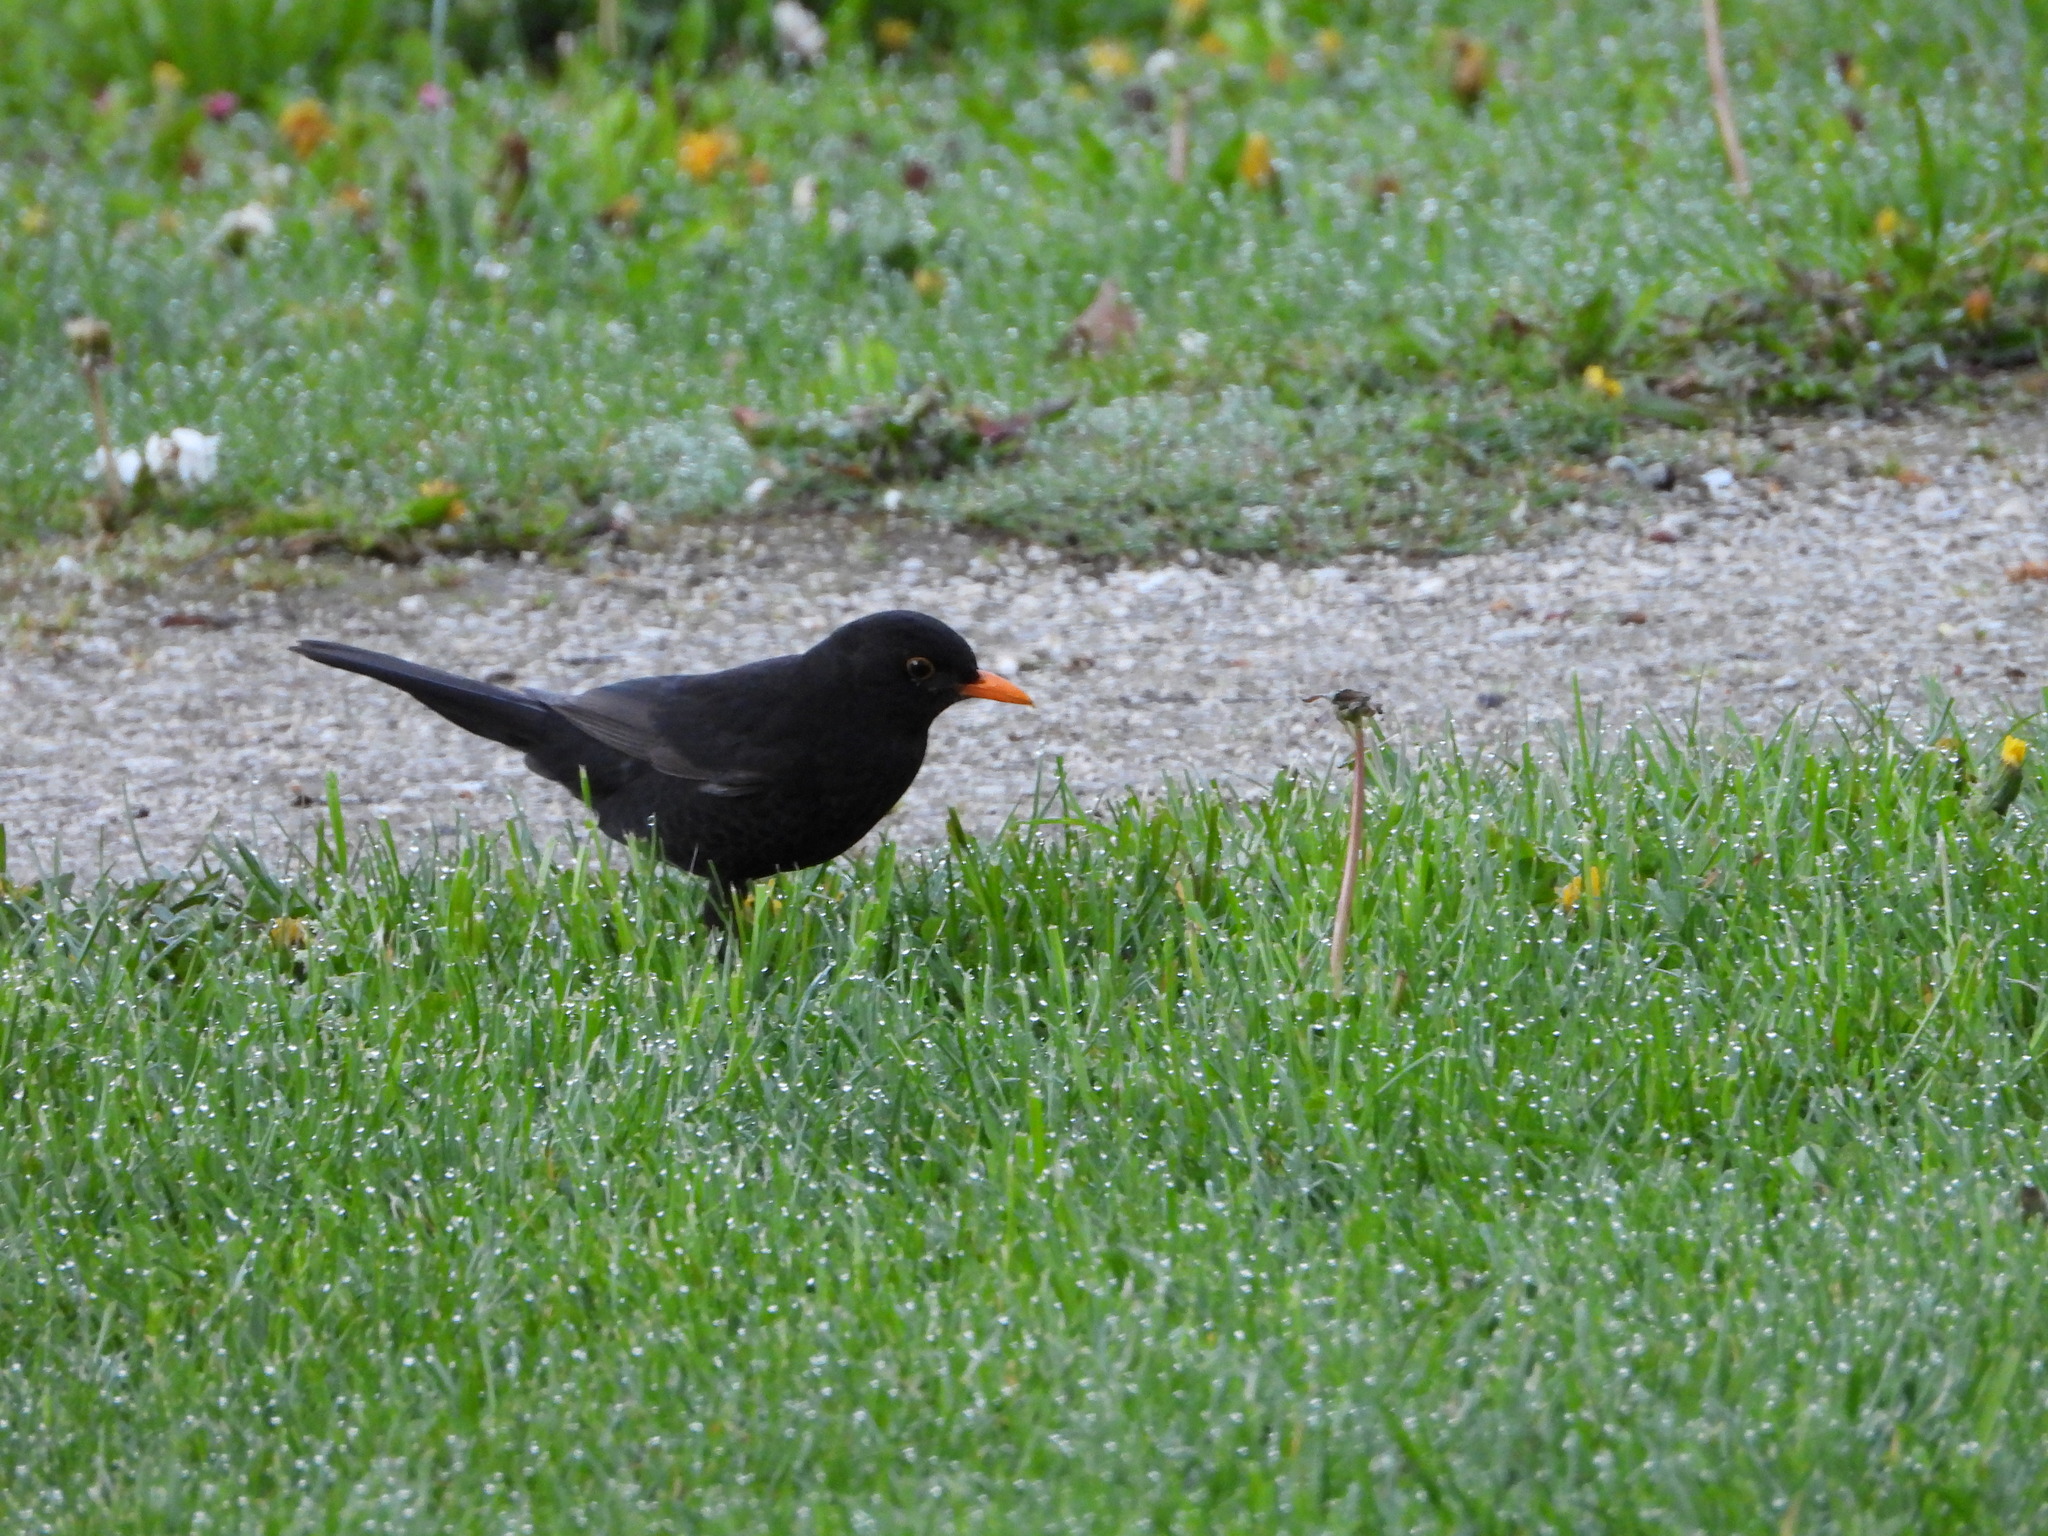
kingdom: Animalia
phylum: Chordata
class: Aves
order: Passeriformes
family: Turdidae
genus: Turdus
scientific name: Turdus merula
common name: Common blackbird
